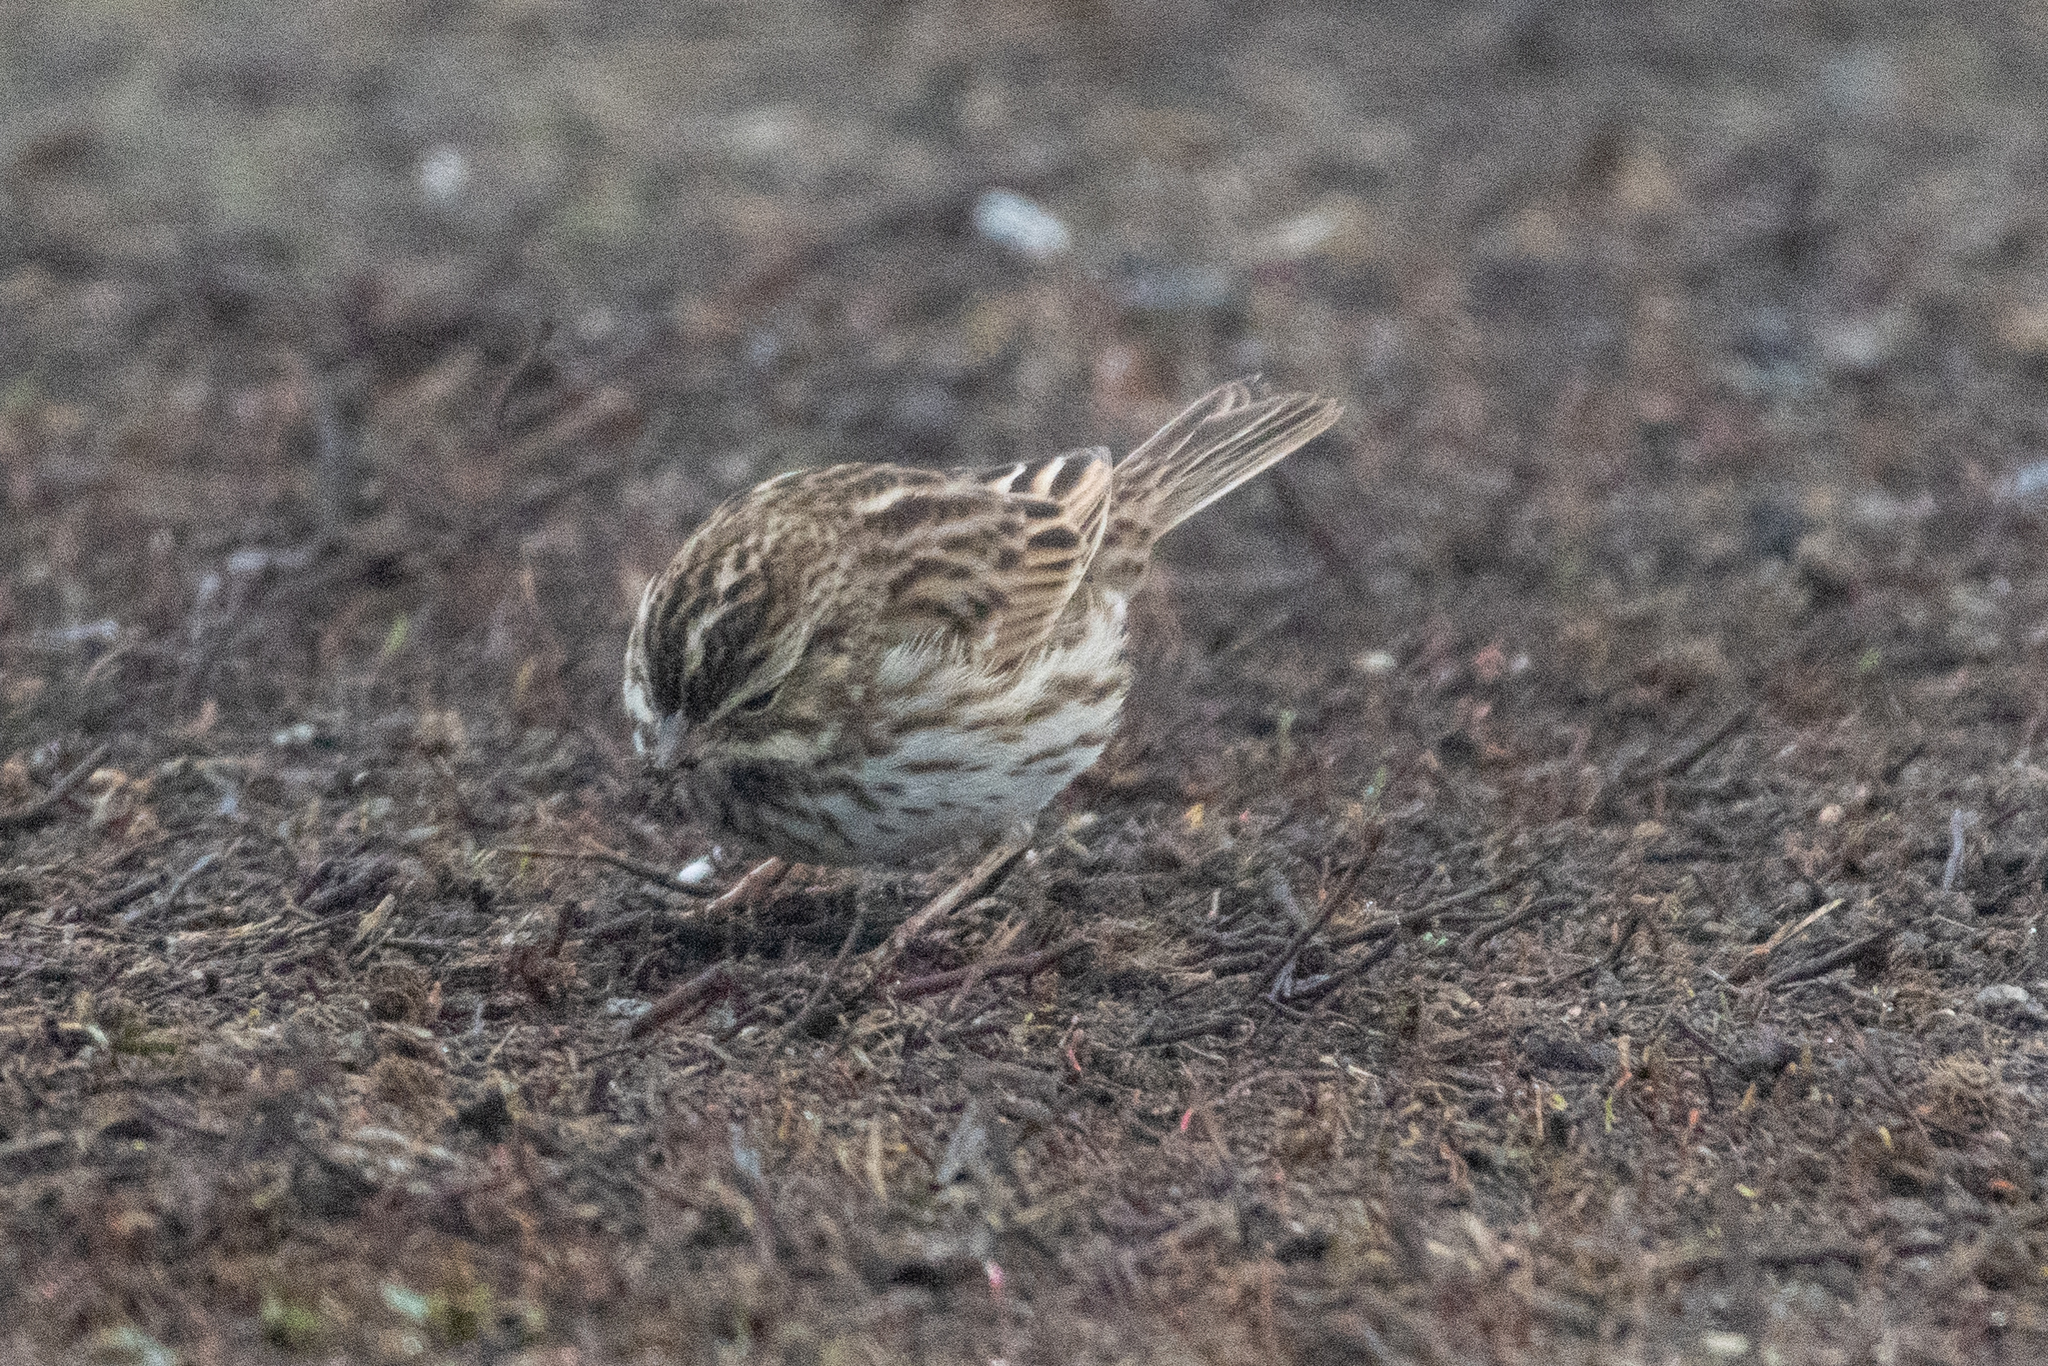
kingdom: Animalia
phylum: Chordata
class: Aves
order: Passeriformes
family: Passerellidae
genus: Passerculus
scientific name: Passerculus sandwichensis
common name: Savannah sparrow
